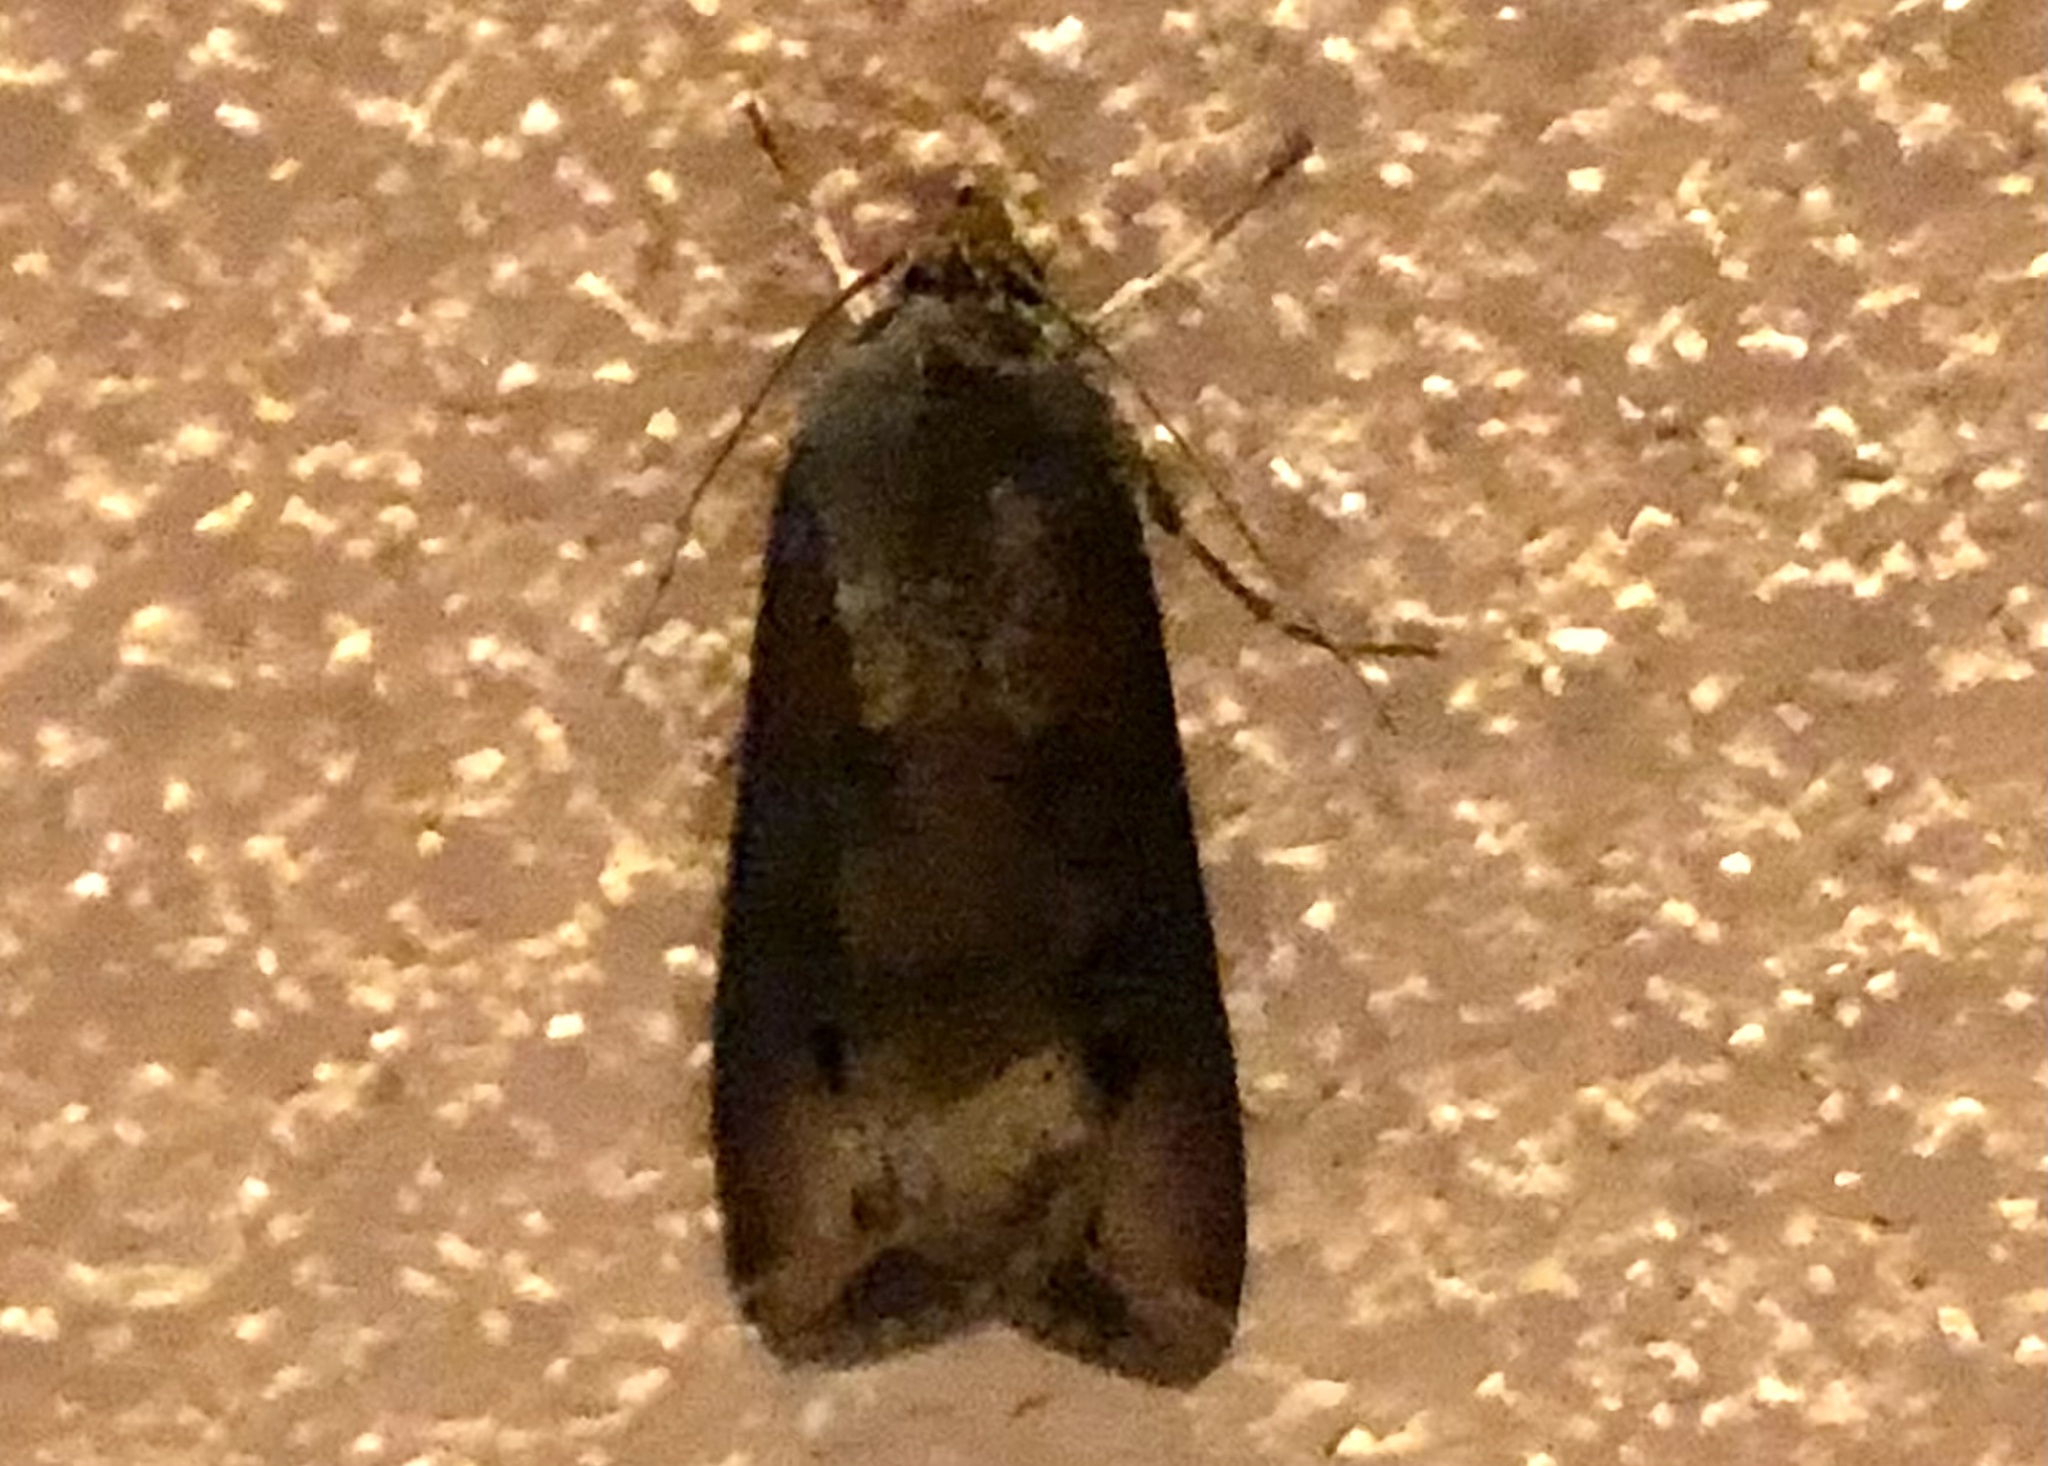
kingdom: Animalia
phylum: Arthropoda
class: Insecta
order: Lepidoptera
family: Noctuidae
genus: Agrotis
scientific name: Agrotis ipsilon
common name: Dark sword-grass
